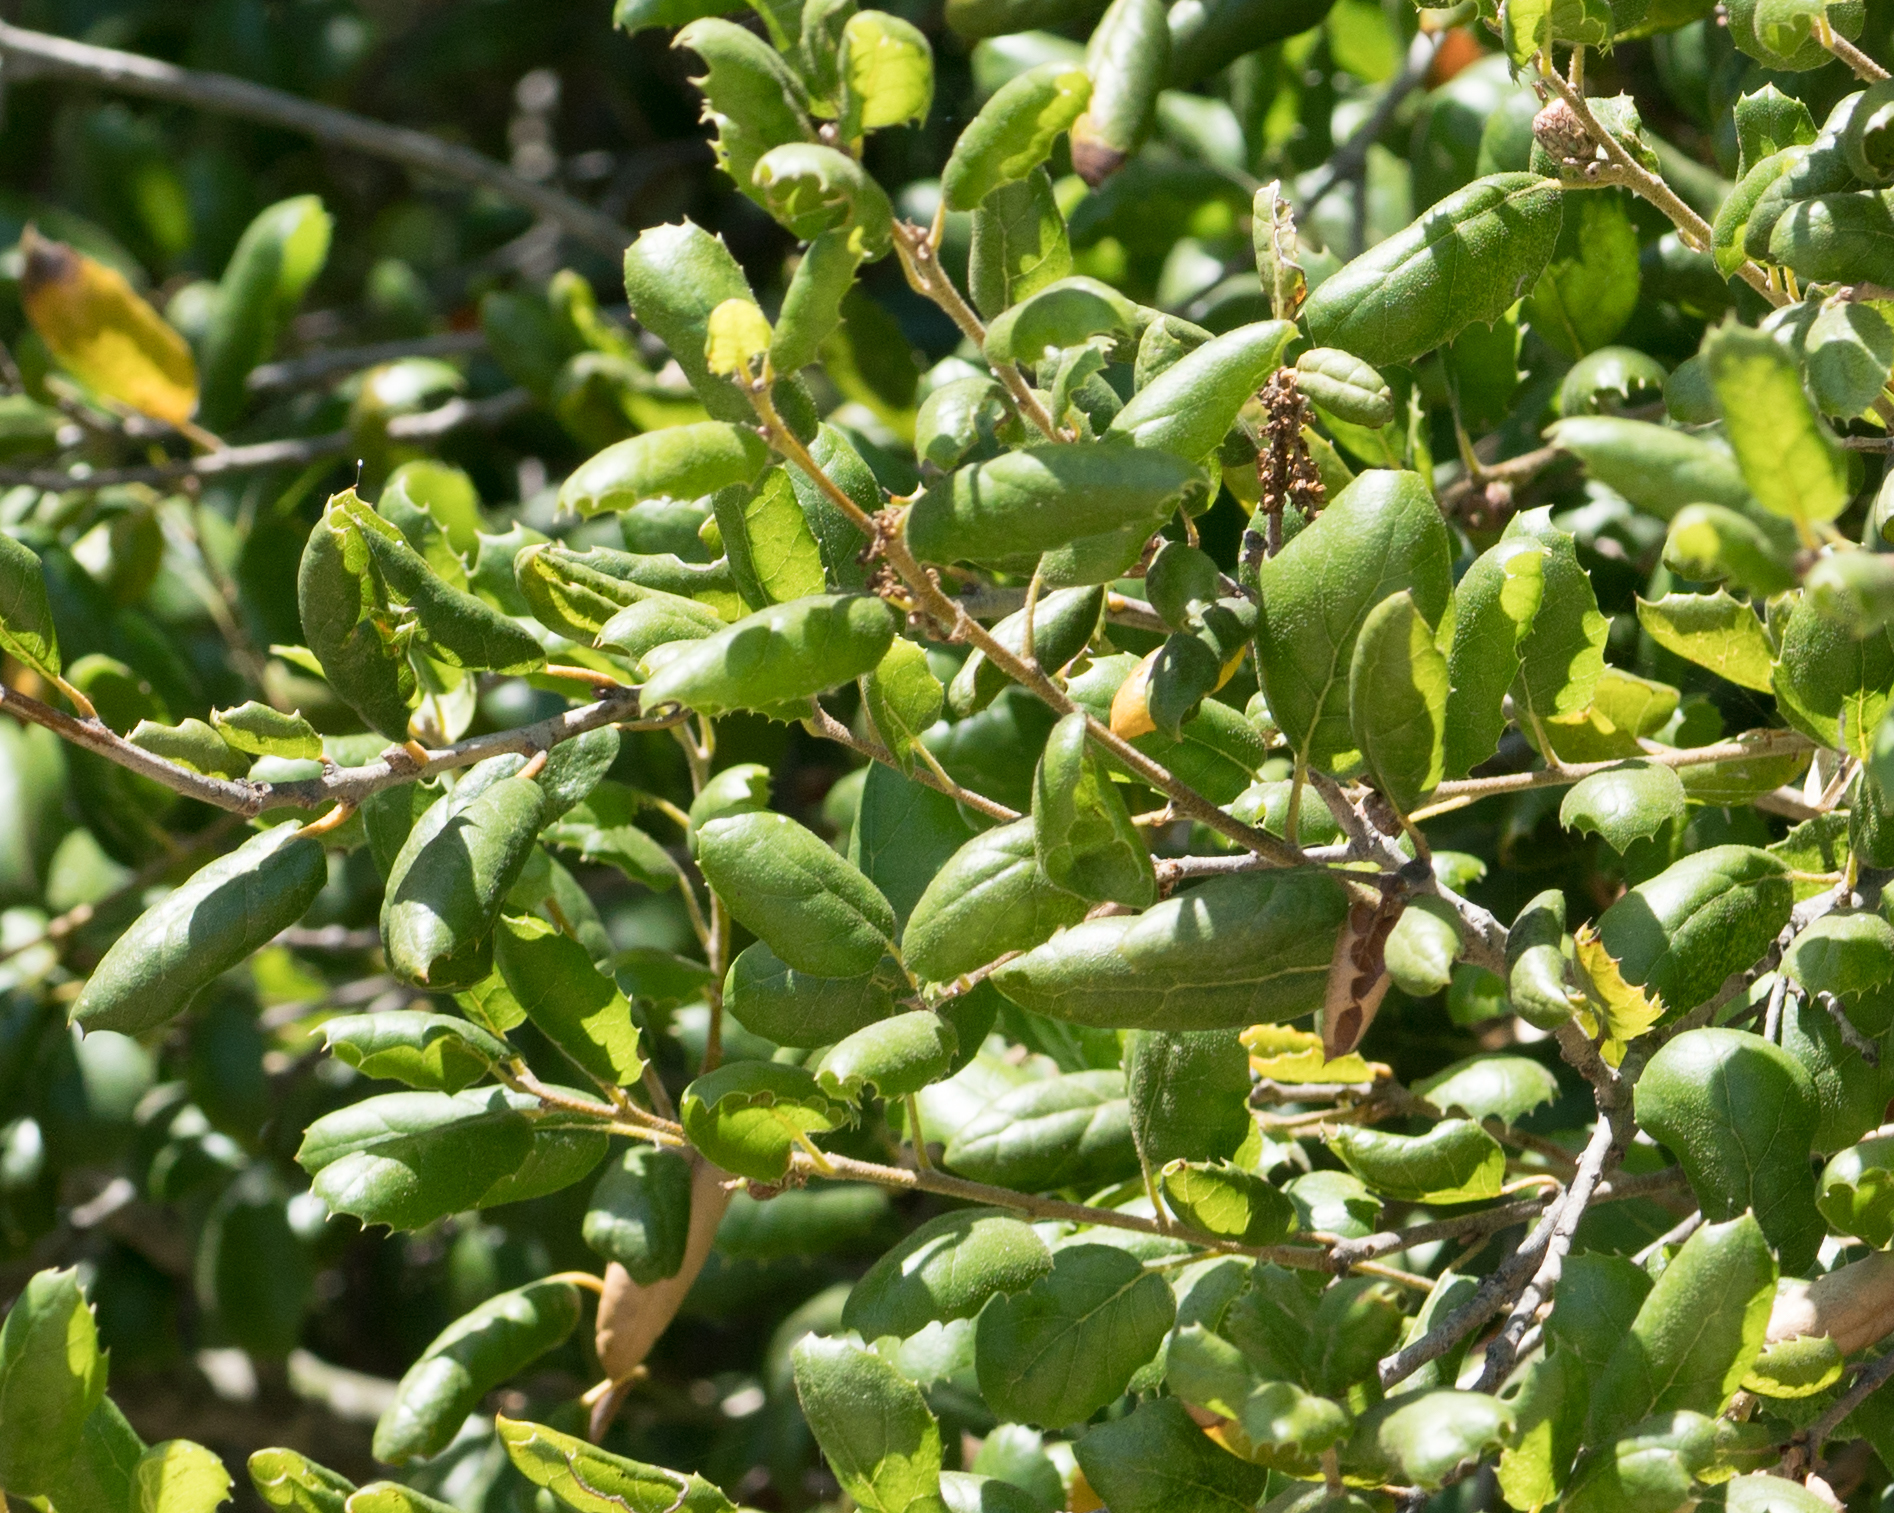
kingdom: Plantae
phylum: Tracheophyta
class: Magnoliopsida
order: Fagales
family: Fagaceae
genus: Quercus
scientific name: Quercus agrifolia
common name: California live oak
